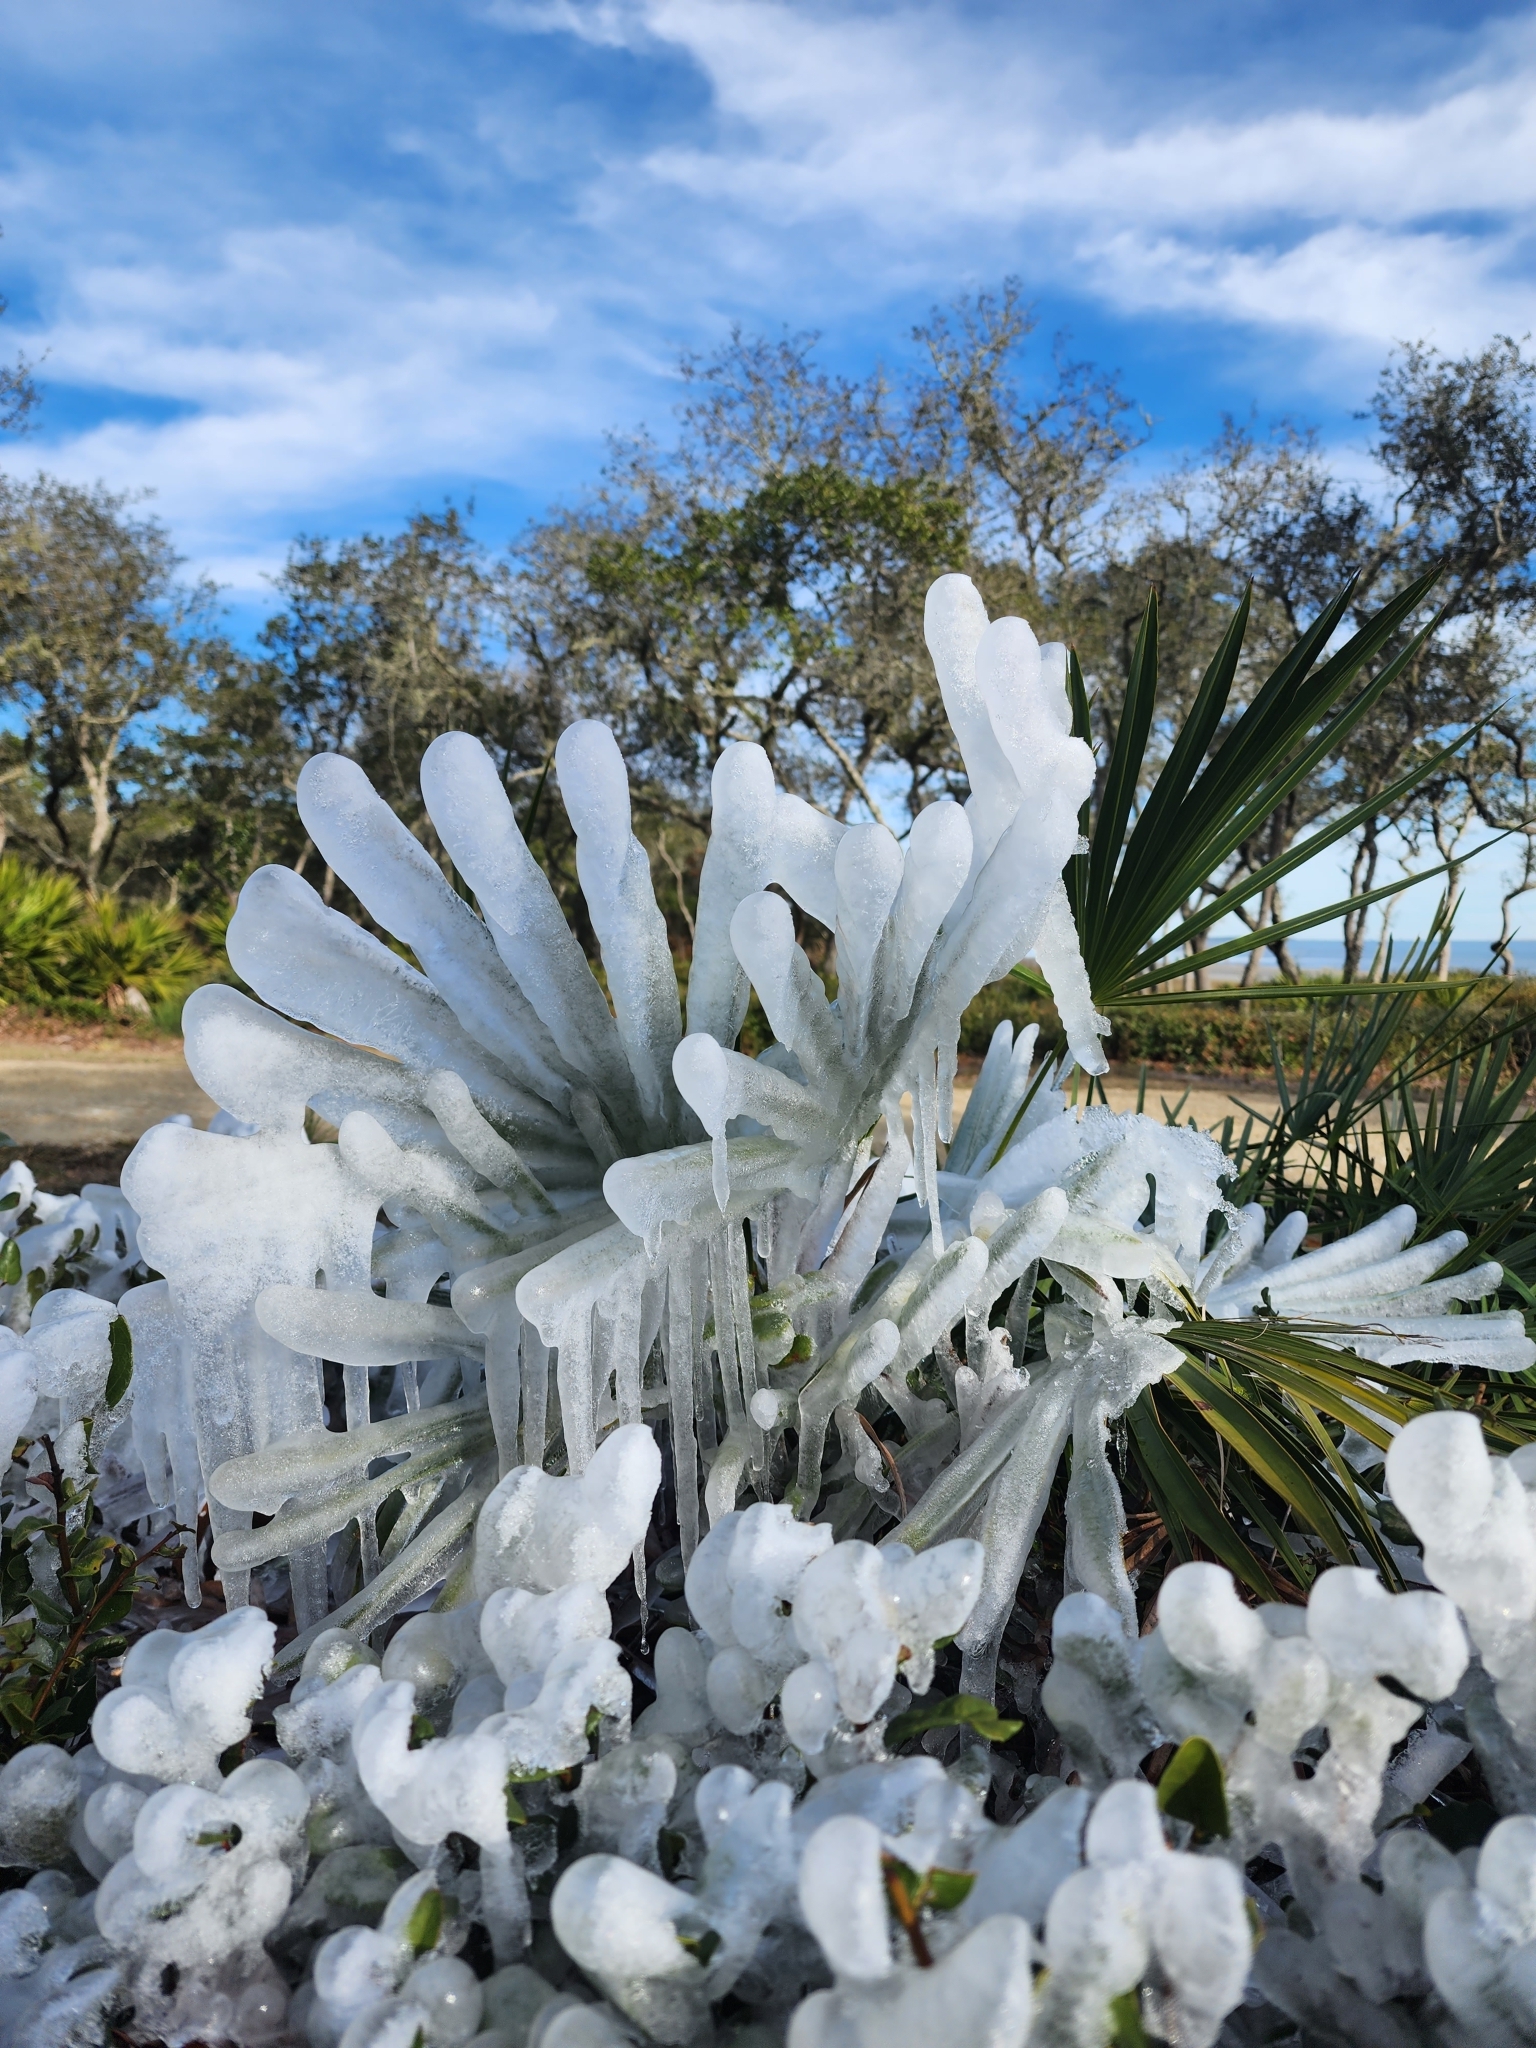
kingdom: Plantae
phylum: Tracheophyta
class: Liliopsida
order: Arecales
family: Arecaceae
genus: Serenoa
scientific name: Serenoa repens
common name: Saw-palmetto
